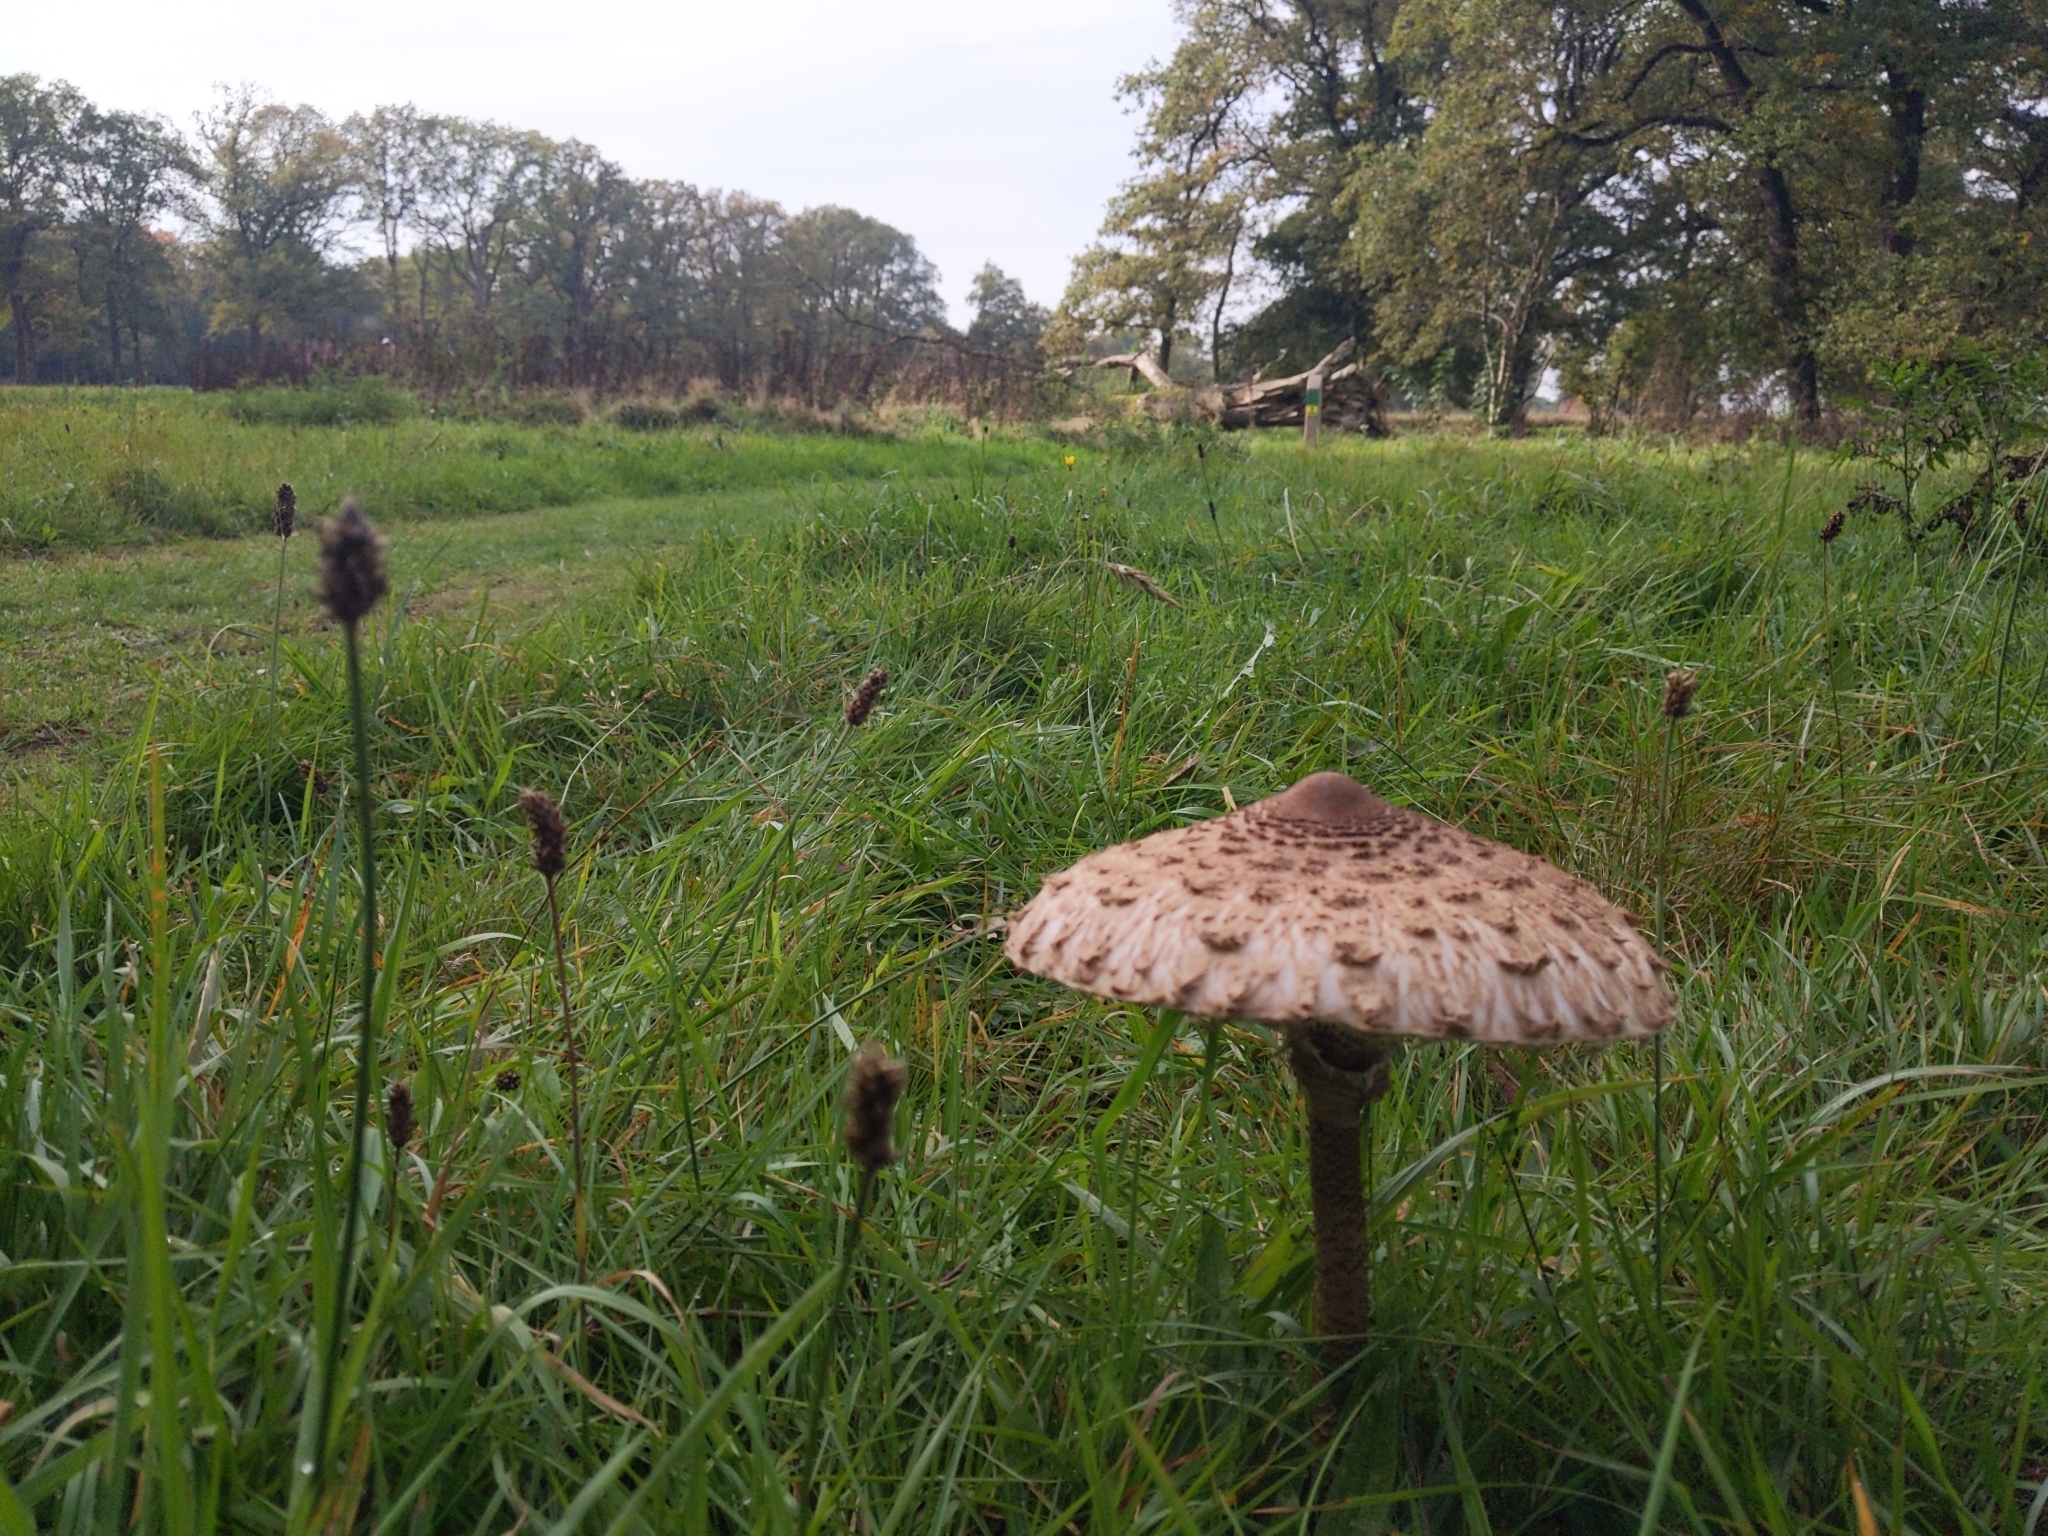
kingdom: Fungi
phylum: Basidiomycota
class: Agaricomycetes
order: Agaricales
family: Agaricaceae
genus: Macrolepiota
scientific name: Macrolepiota procera
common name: Parasol
